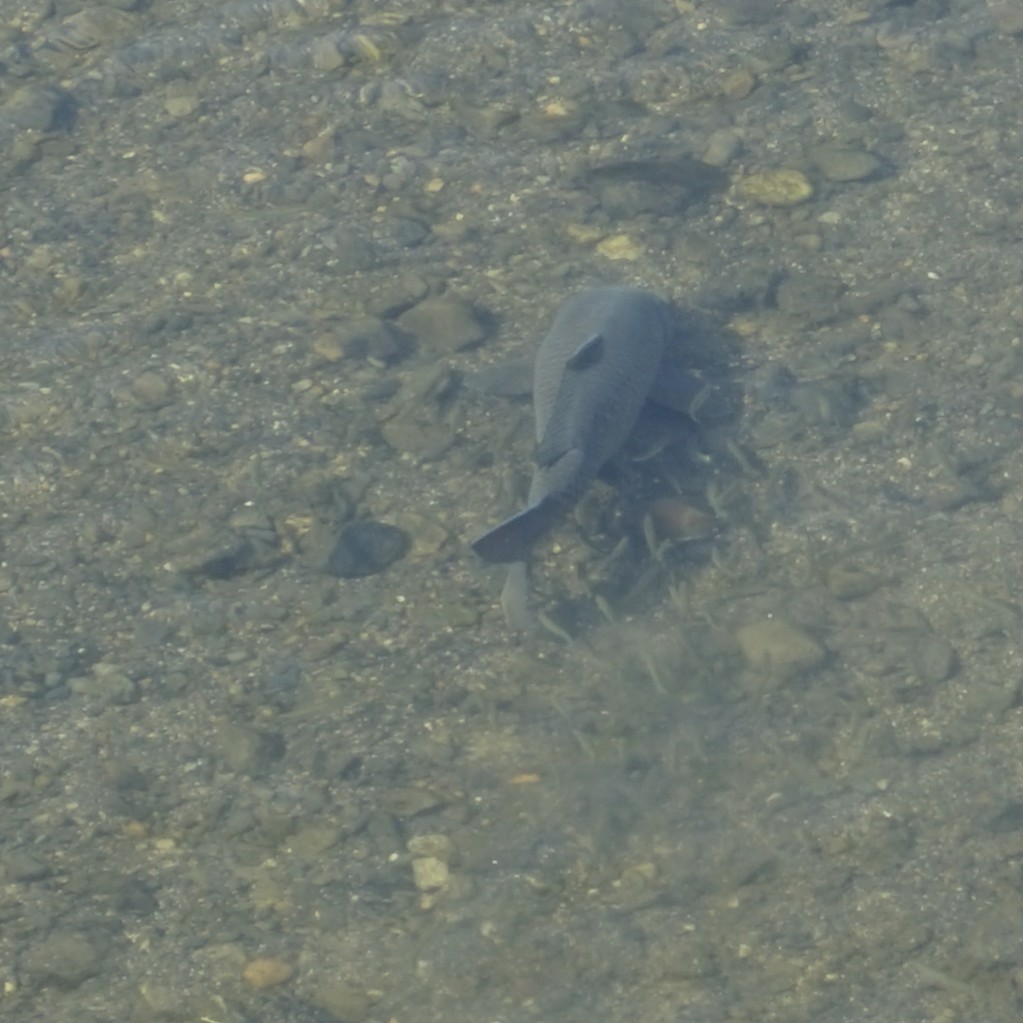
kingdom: Animalia
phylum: Chordata
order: Cypriniformes
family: Cyprinidae
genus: Cyprinus
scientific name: Cyprinus rubrofuscus
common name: Koi
